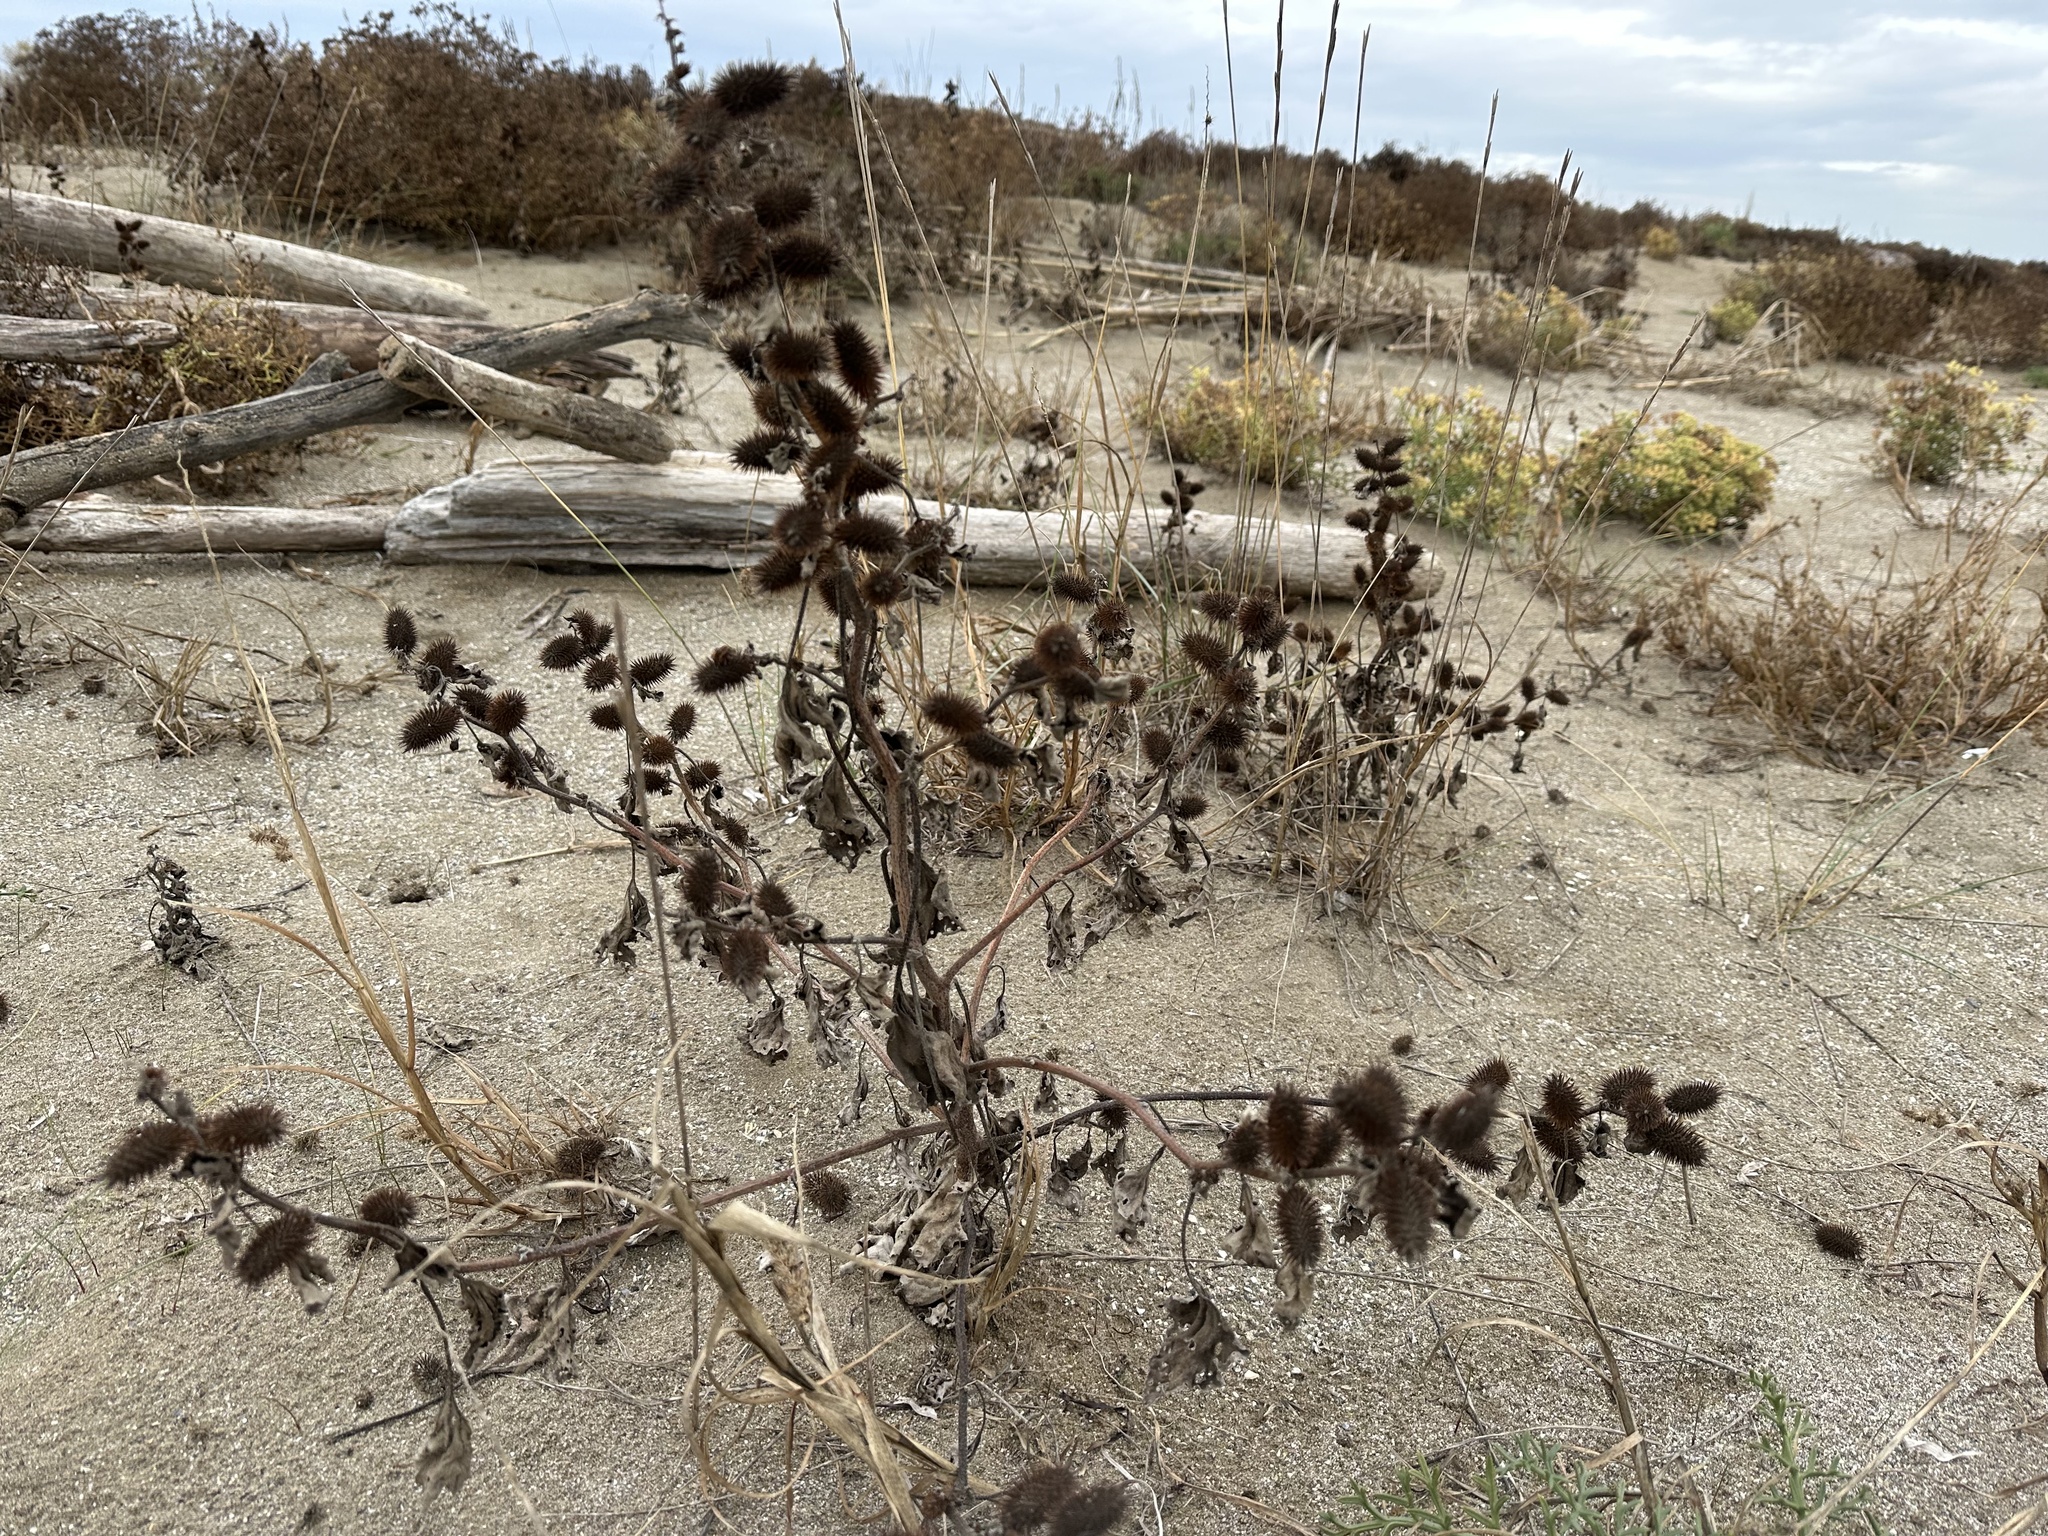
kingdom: Plantae
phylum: Tracheophyta
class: Magnoliopsida
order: Asterales
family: Asteraceae
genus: Xanthium
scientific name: Xanthium orientale
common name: Californian burr
